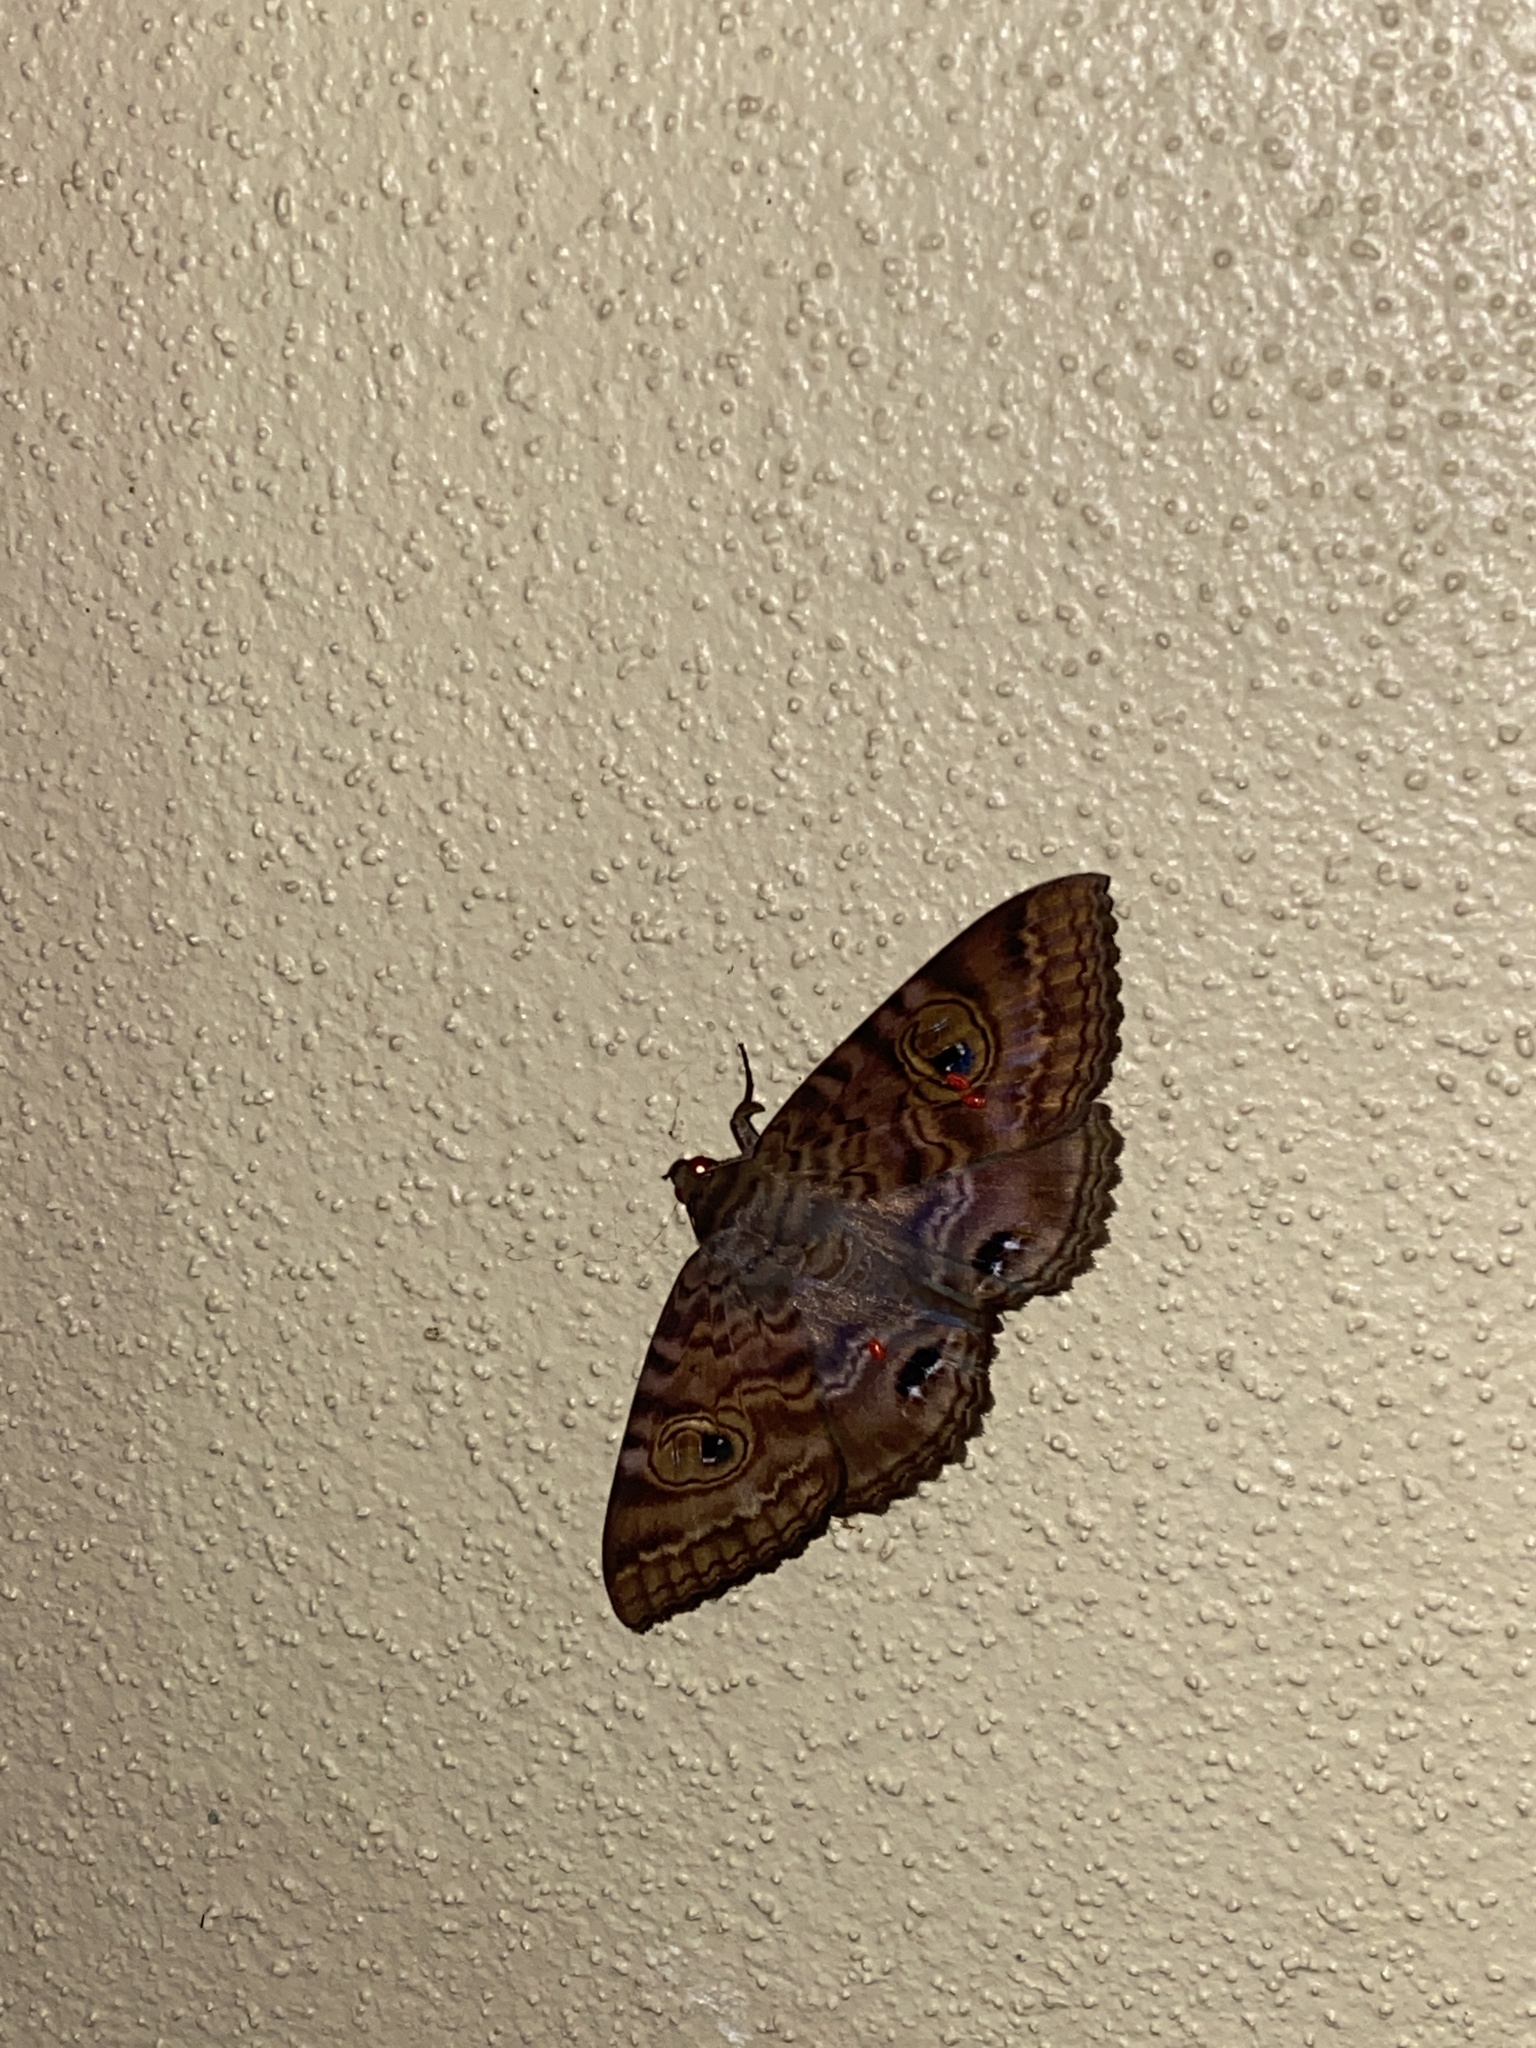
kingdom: Animalia
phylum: Arthropoda
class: Insecta
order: Lepidoptera
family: Erebidae
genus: Speiredonia
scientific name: Speiredonia spectans
